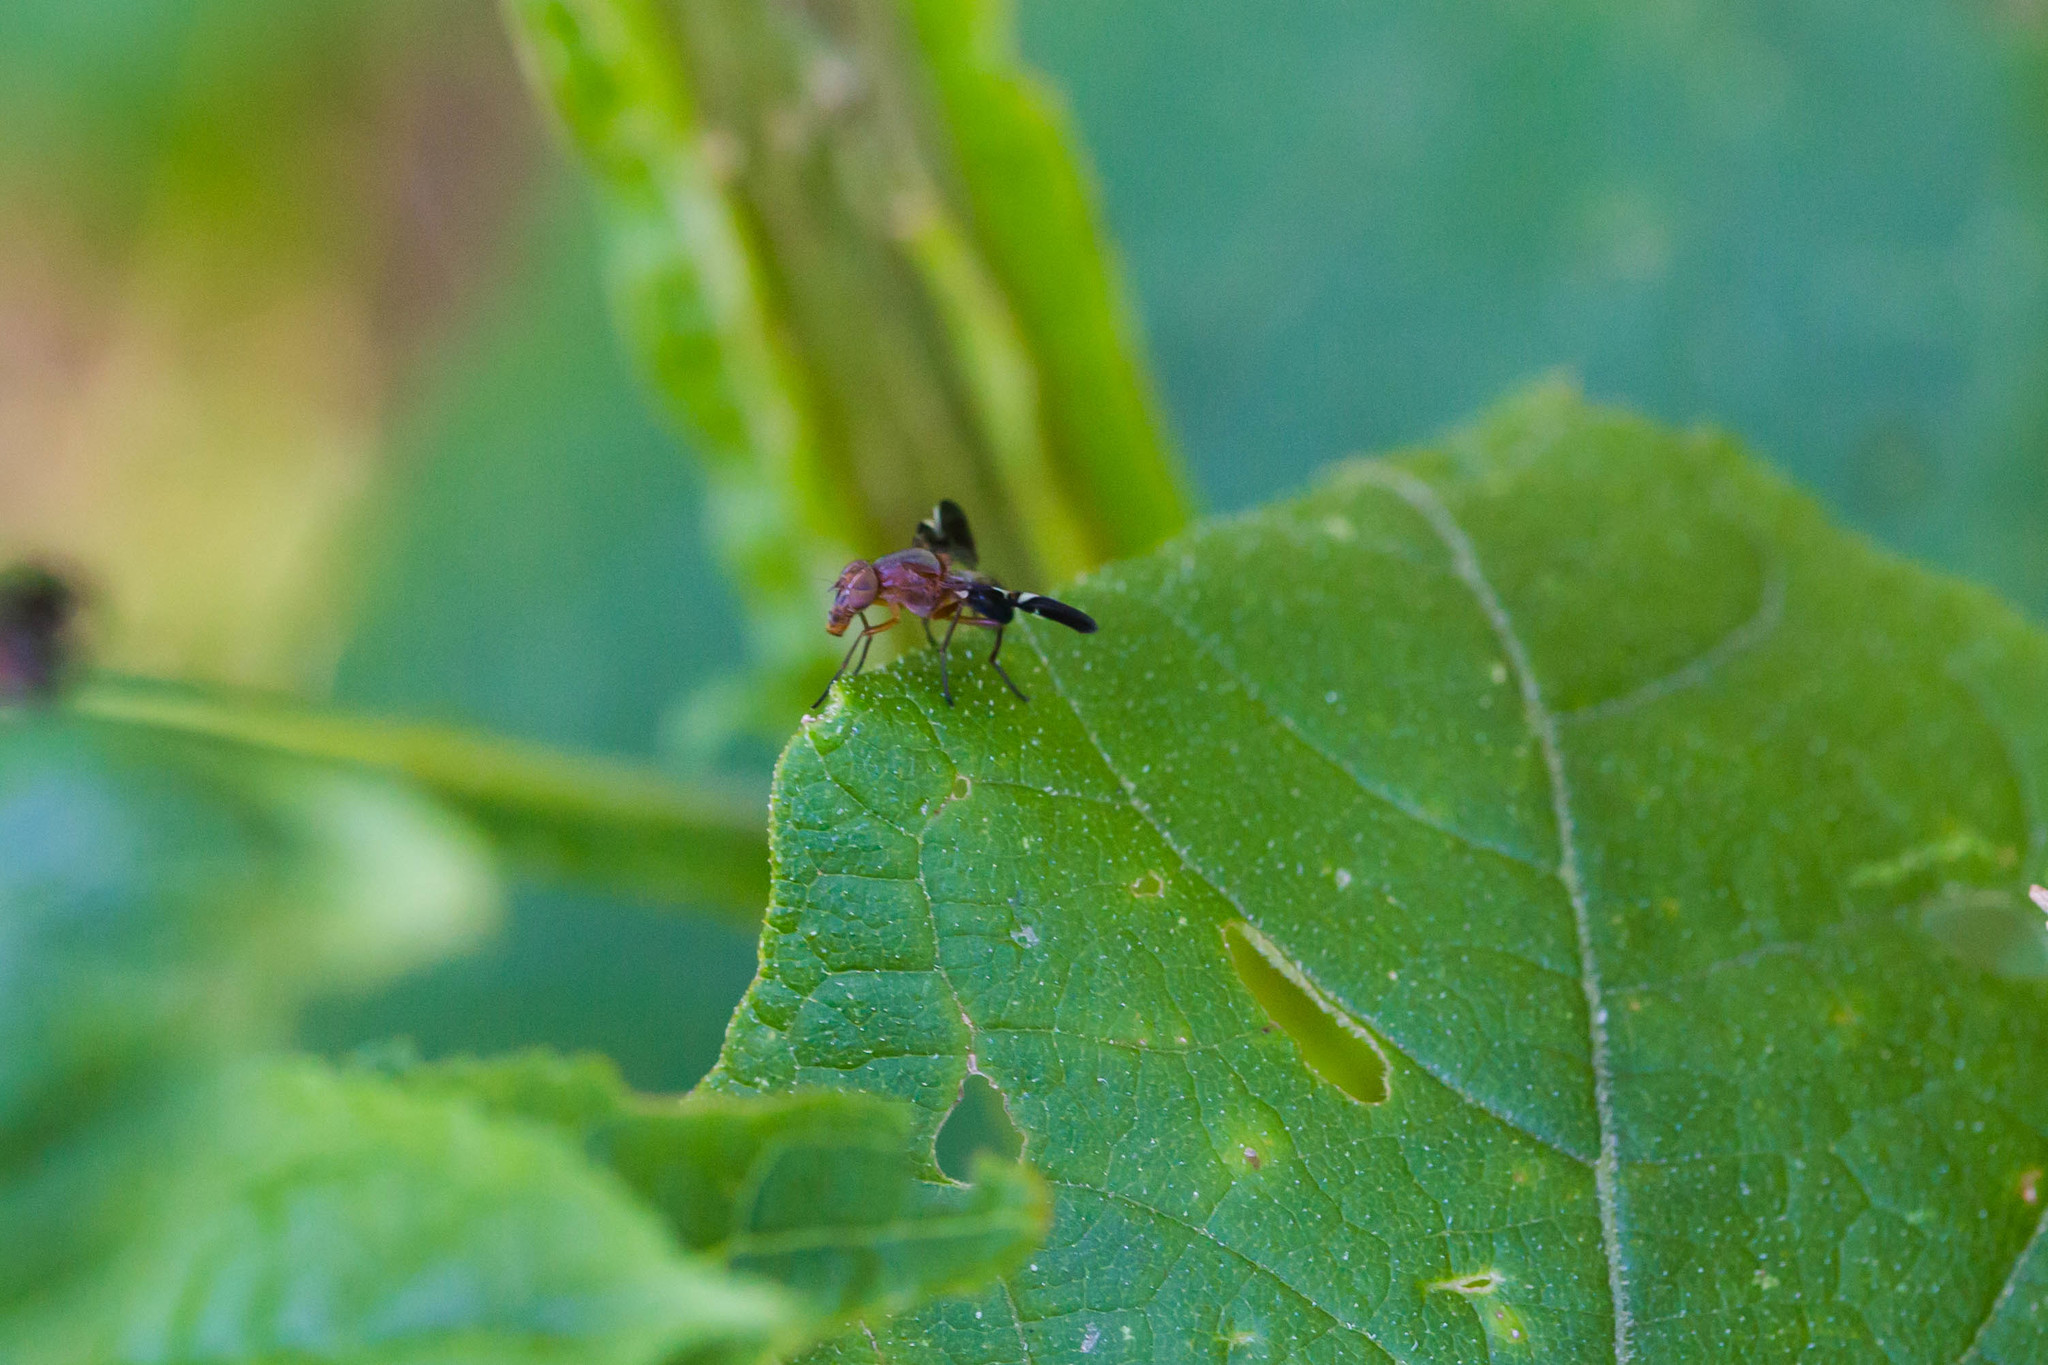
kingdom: Animalia
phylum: Arthropoda
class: Insecta
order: Diptera
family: Ulidiidae
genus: Delphinia
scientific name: Delphinia picta
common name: Common picture-winged fly
